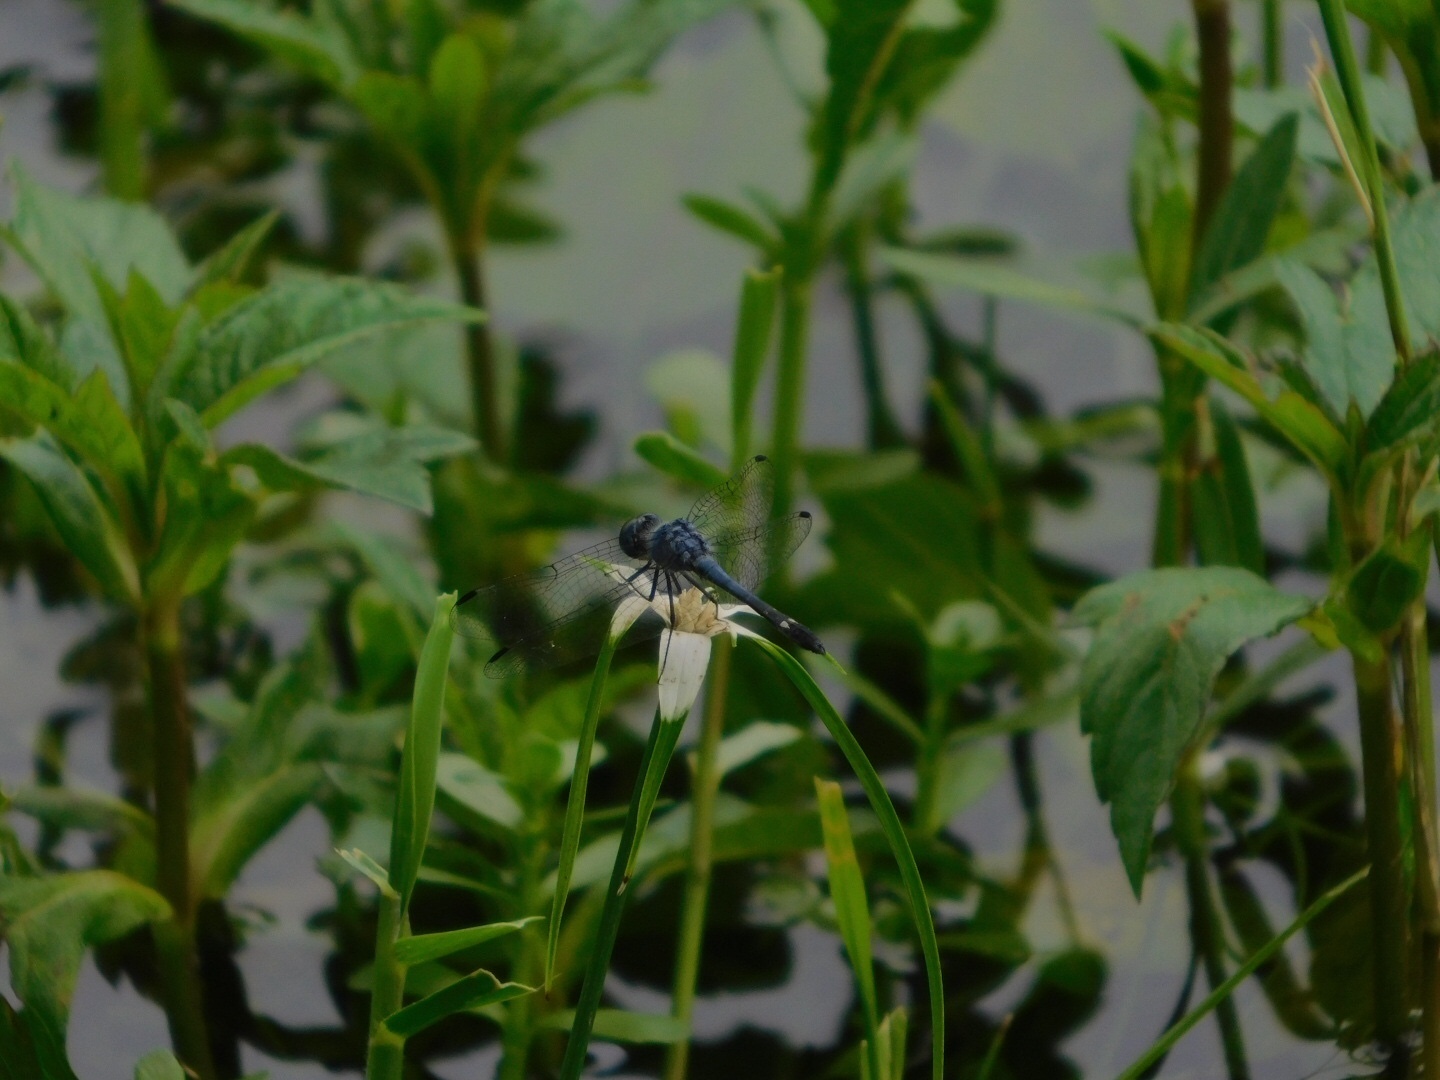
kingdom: Animalia
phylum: Arthropoda
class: Insecta
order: Odonata
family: Libellulidae
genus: Micrathyria
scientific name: Micrathyria aequalis
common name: Spot-tailed dasher
